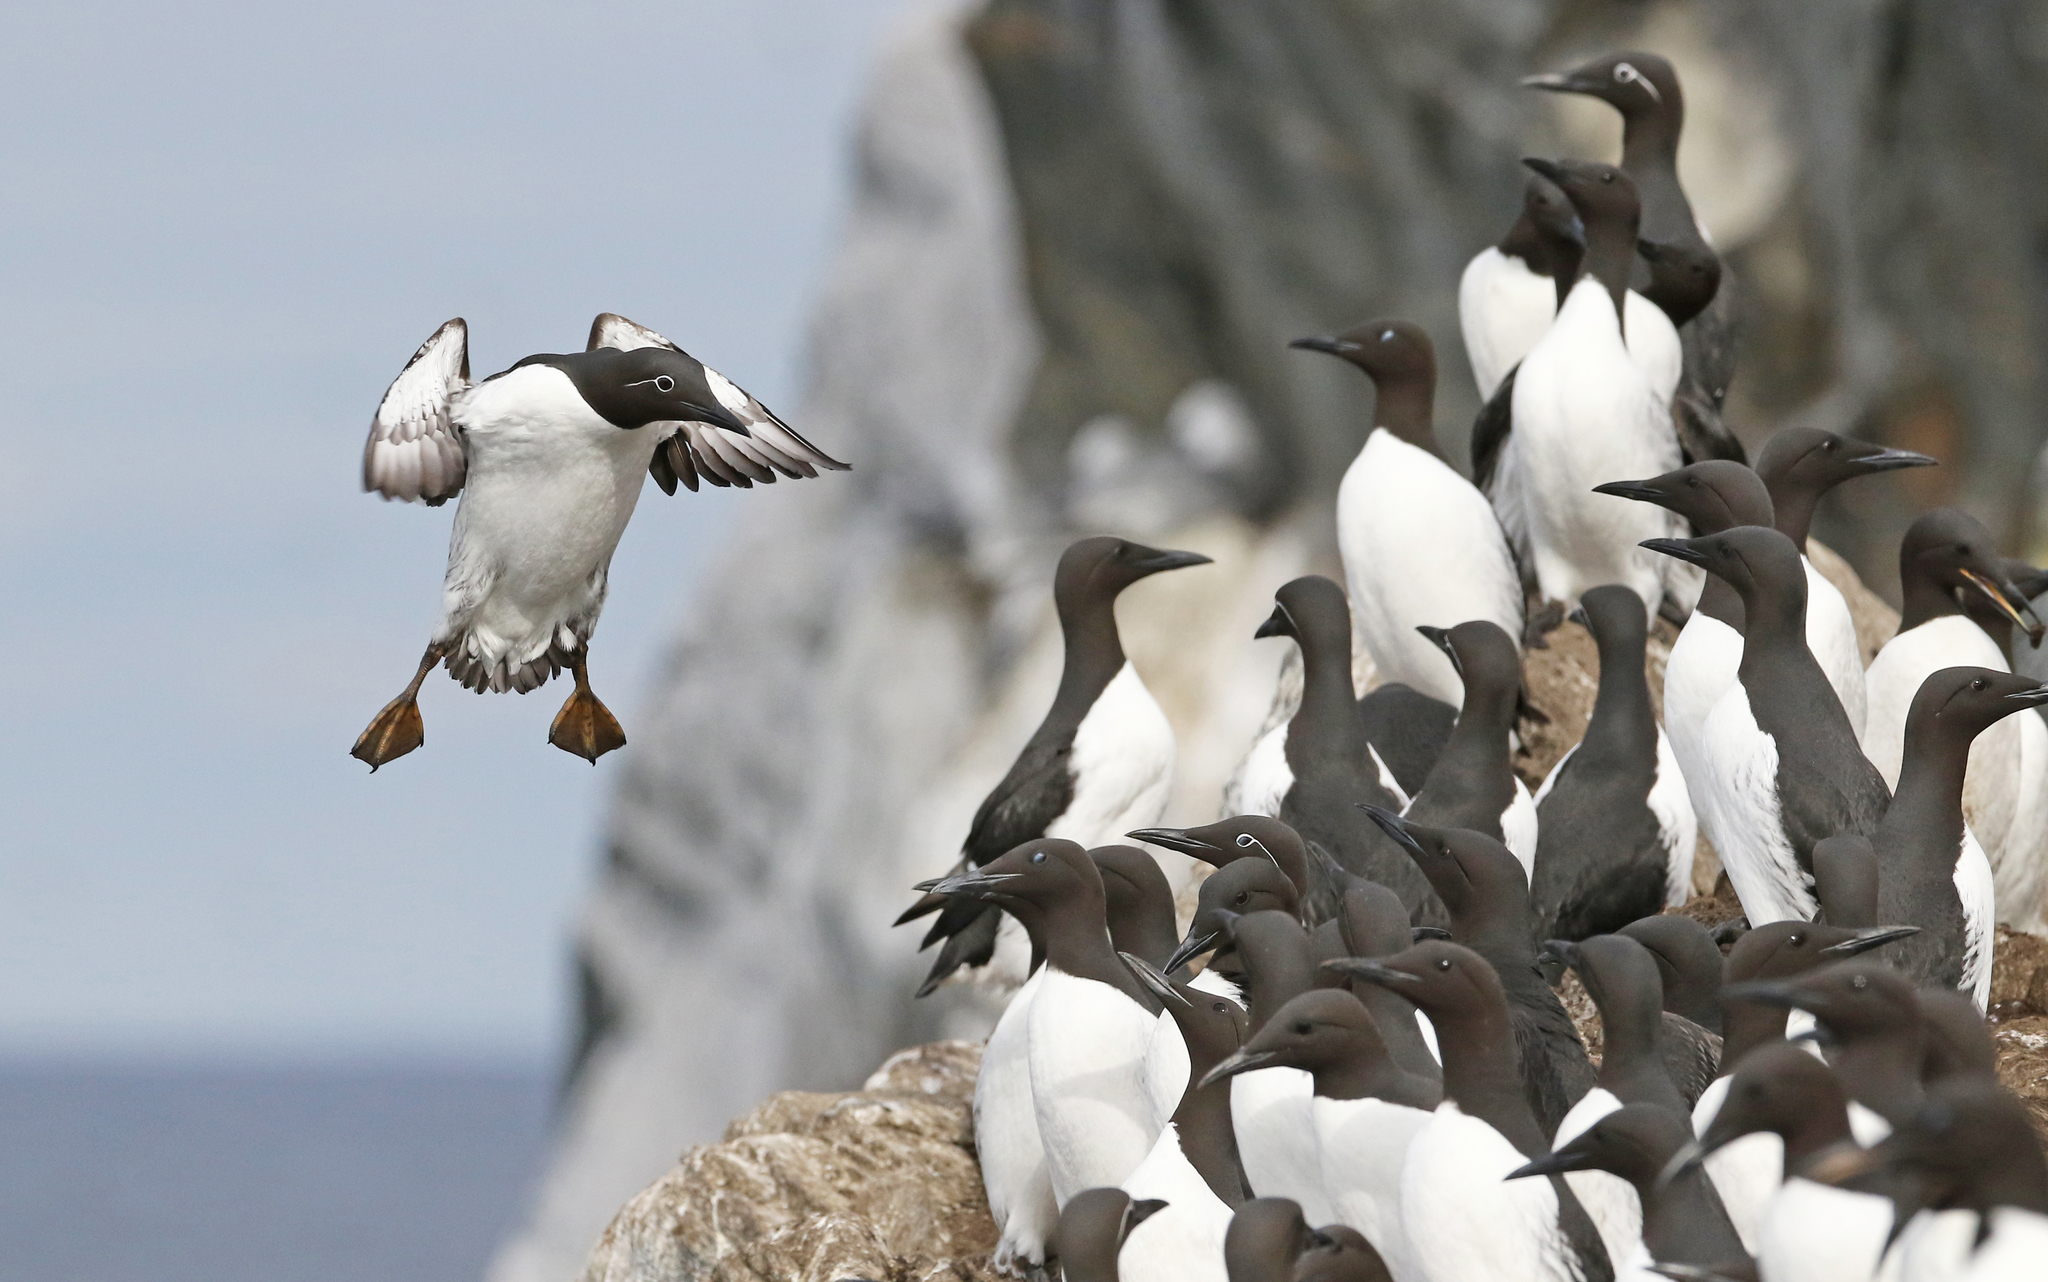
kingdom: Animalia
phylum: Chordata
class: Aves
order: Charadriiformes
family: Alcidae
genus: Uria
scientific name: Uria aalge
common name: Common murre
